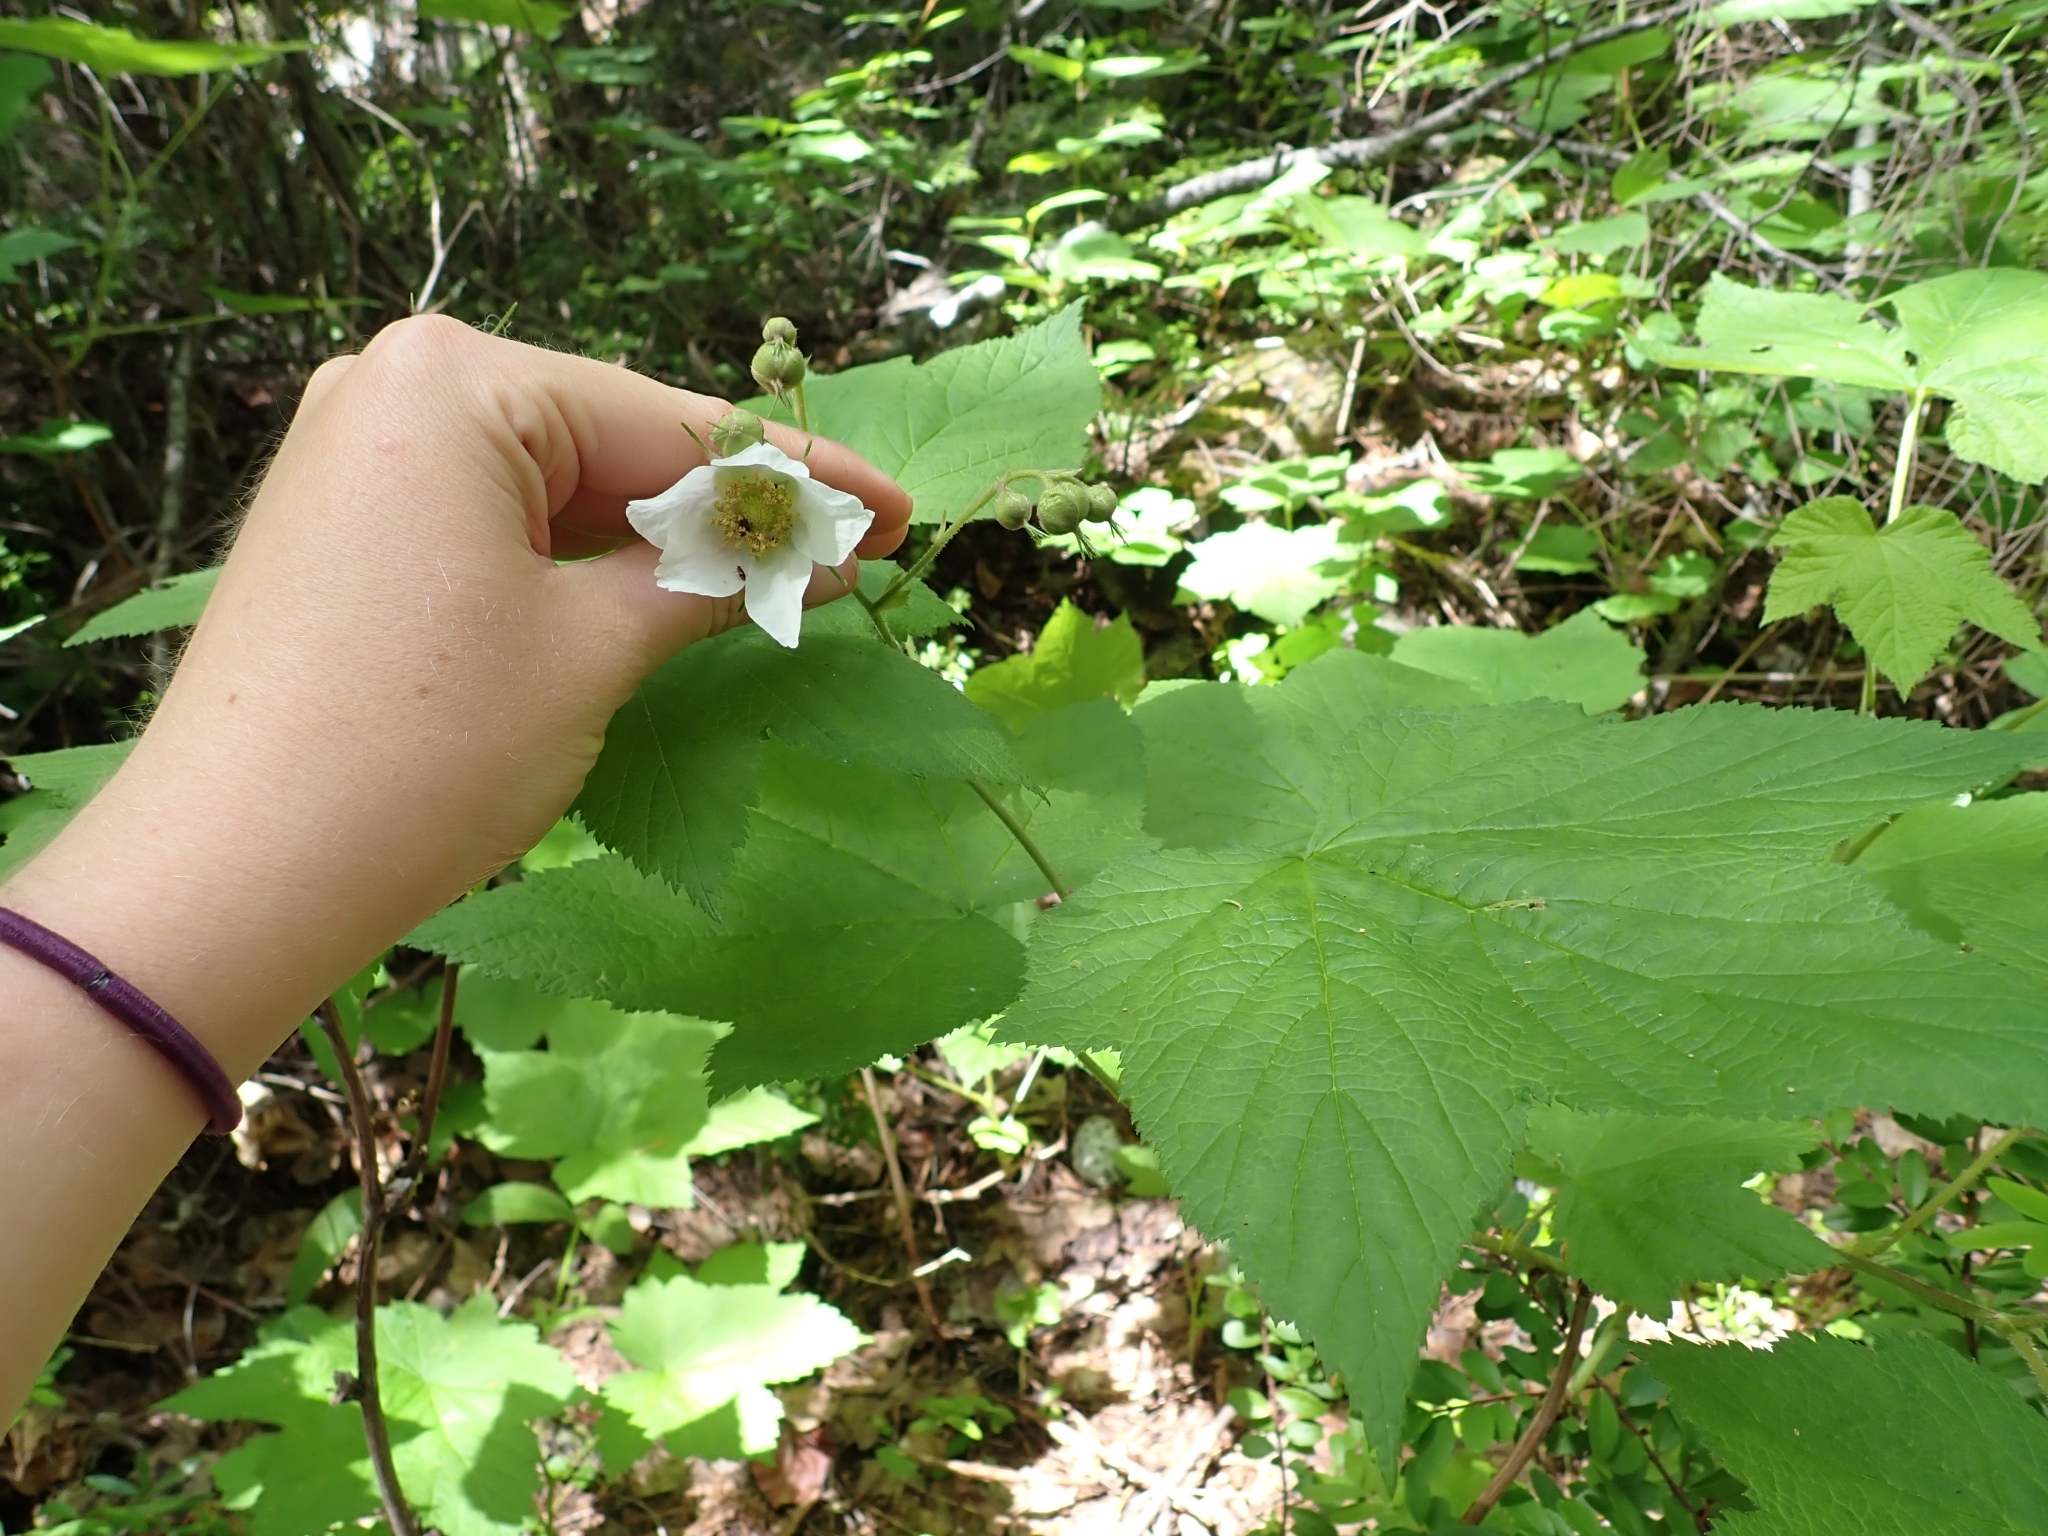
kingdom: Plantae
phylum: Tracheophyta
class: Magnoliopsida
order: Rosales
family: Rosaceae
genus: Rubus
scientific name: Rubus parviflorus
